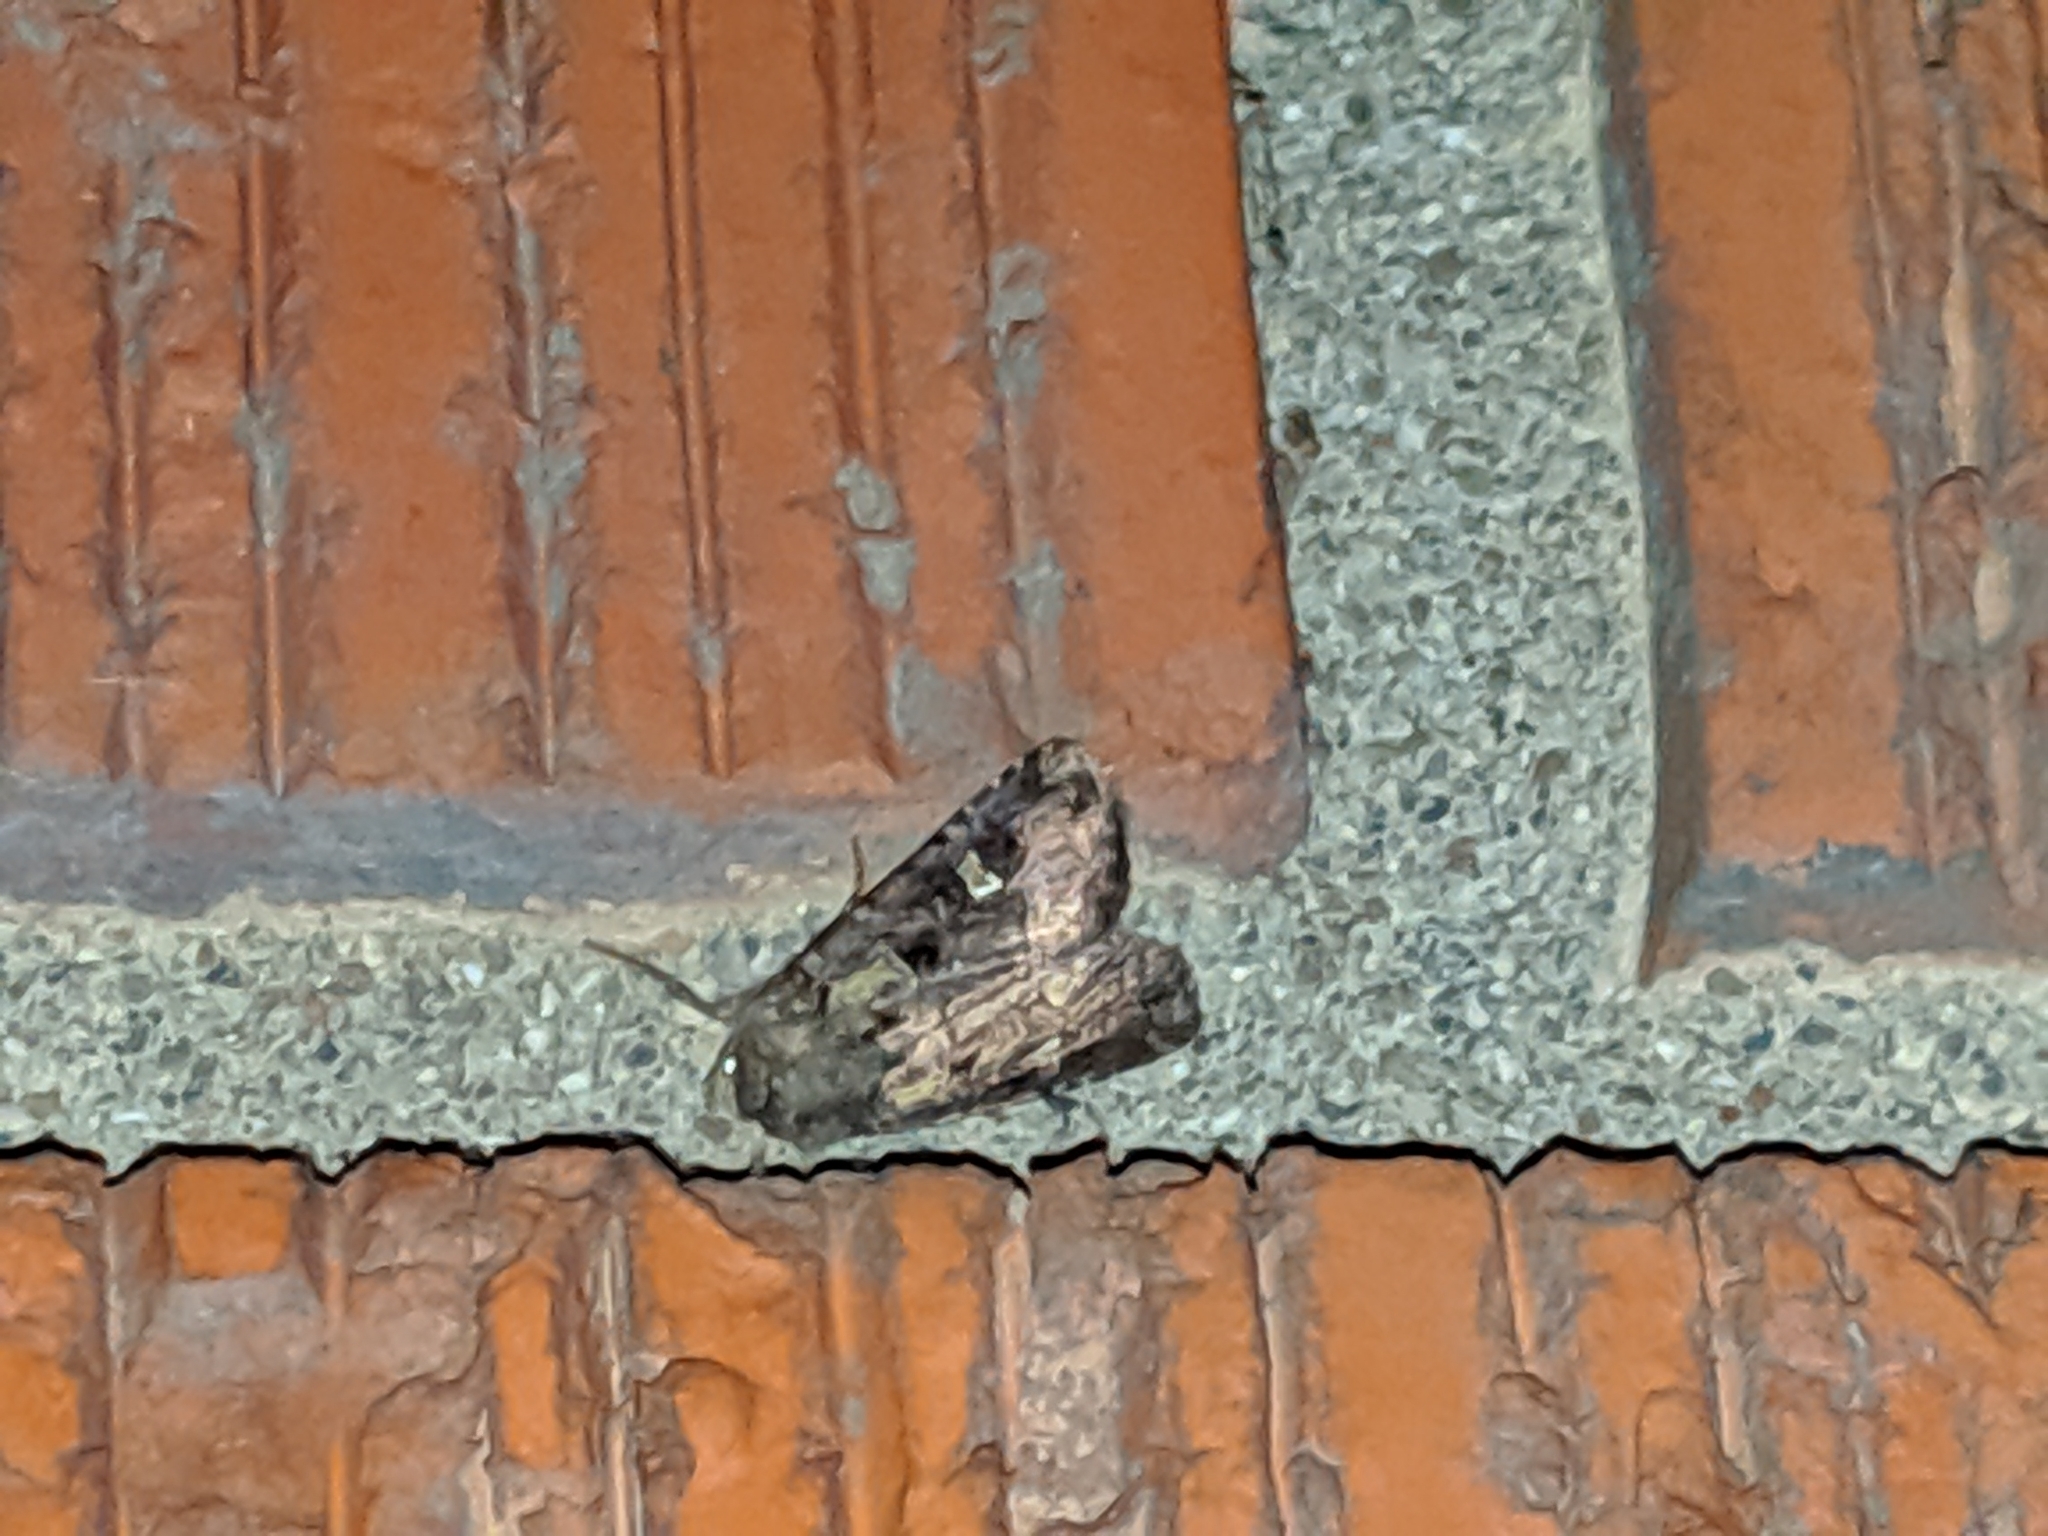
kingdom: Animalia
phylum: Arthropoda
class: Insecta
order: Lepidoptera
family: Noctuidae
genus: Lacinipolia
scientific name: Lacinipolia renigera
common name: Kidney-spotted minor
